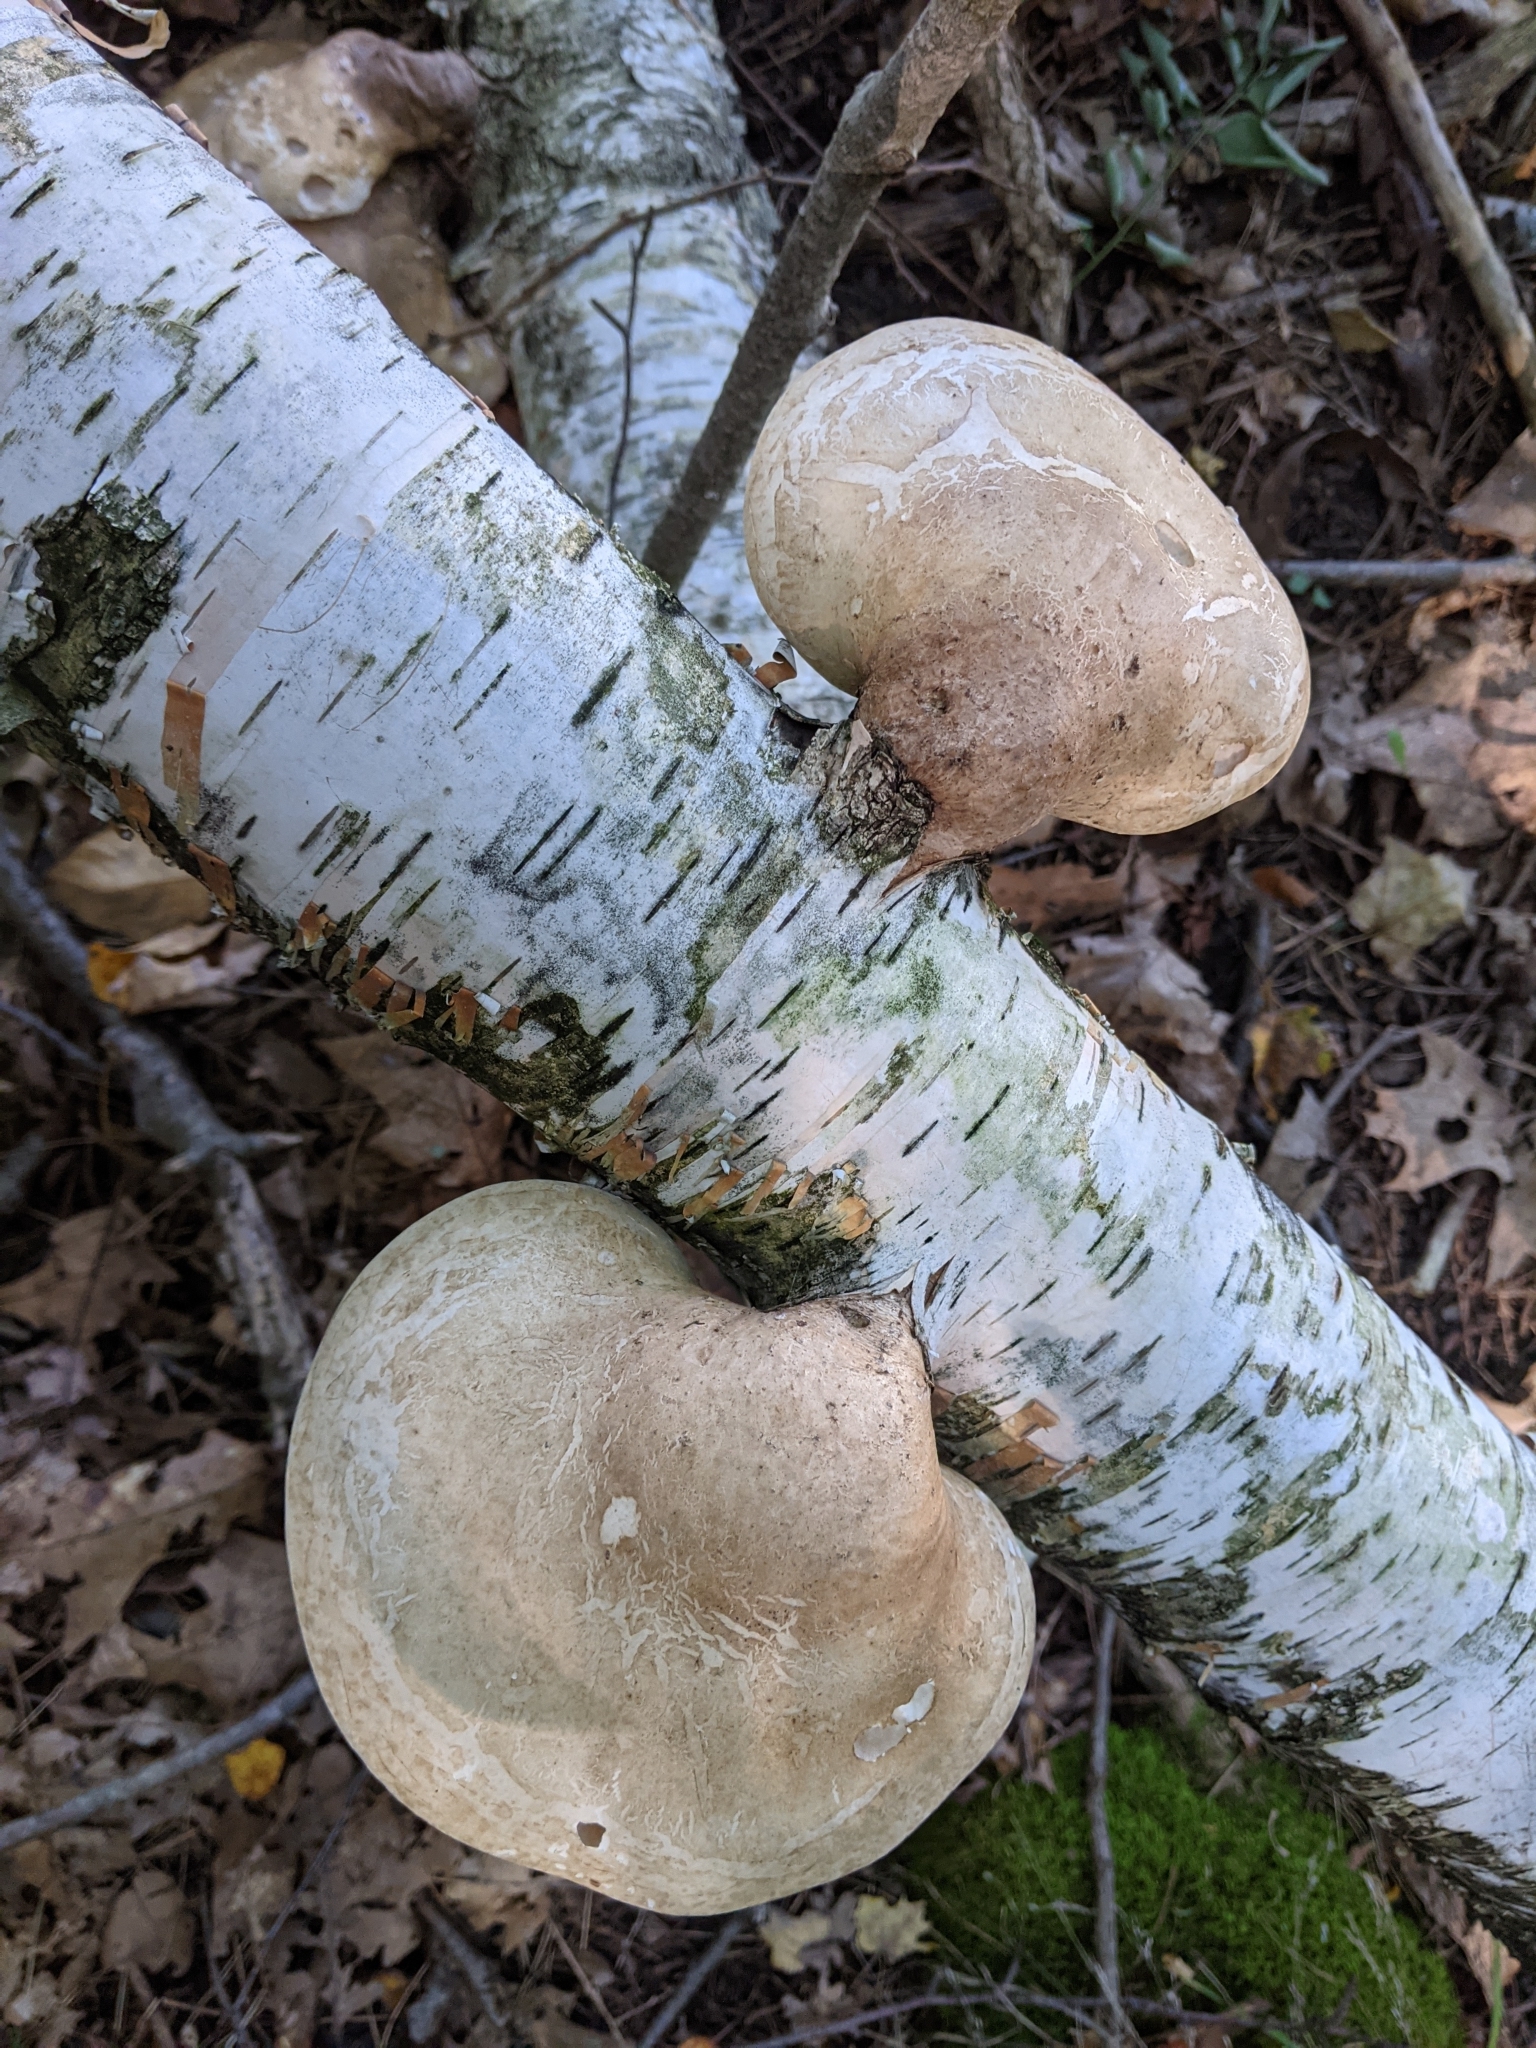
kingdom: Fungi
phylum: Basidiomycota
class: Agaricomycetes
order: Polyporales
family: Fomitopsidaceae
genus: Fomitopsis
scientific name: Fomitopsis betulina
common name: Birch polypore
